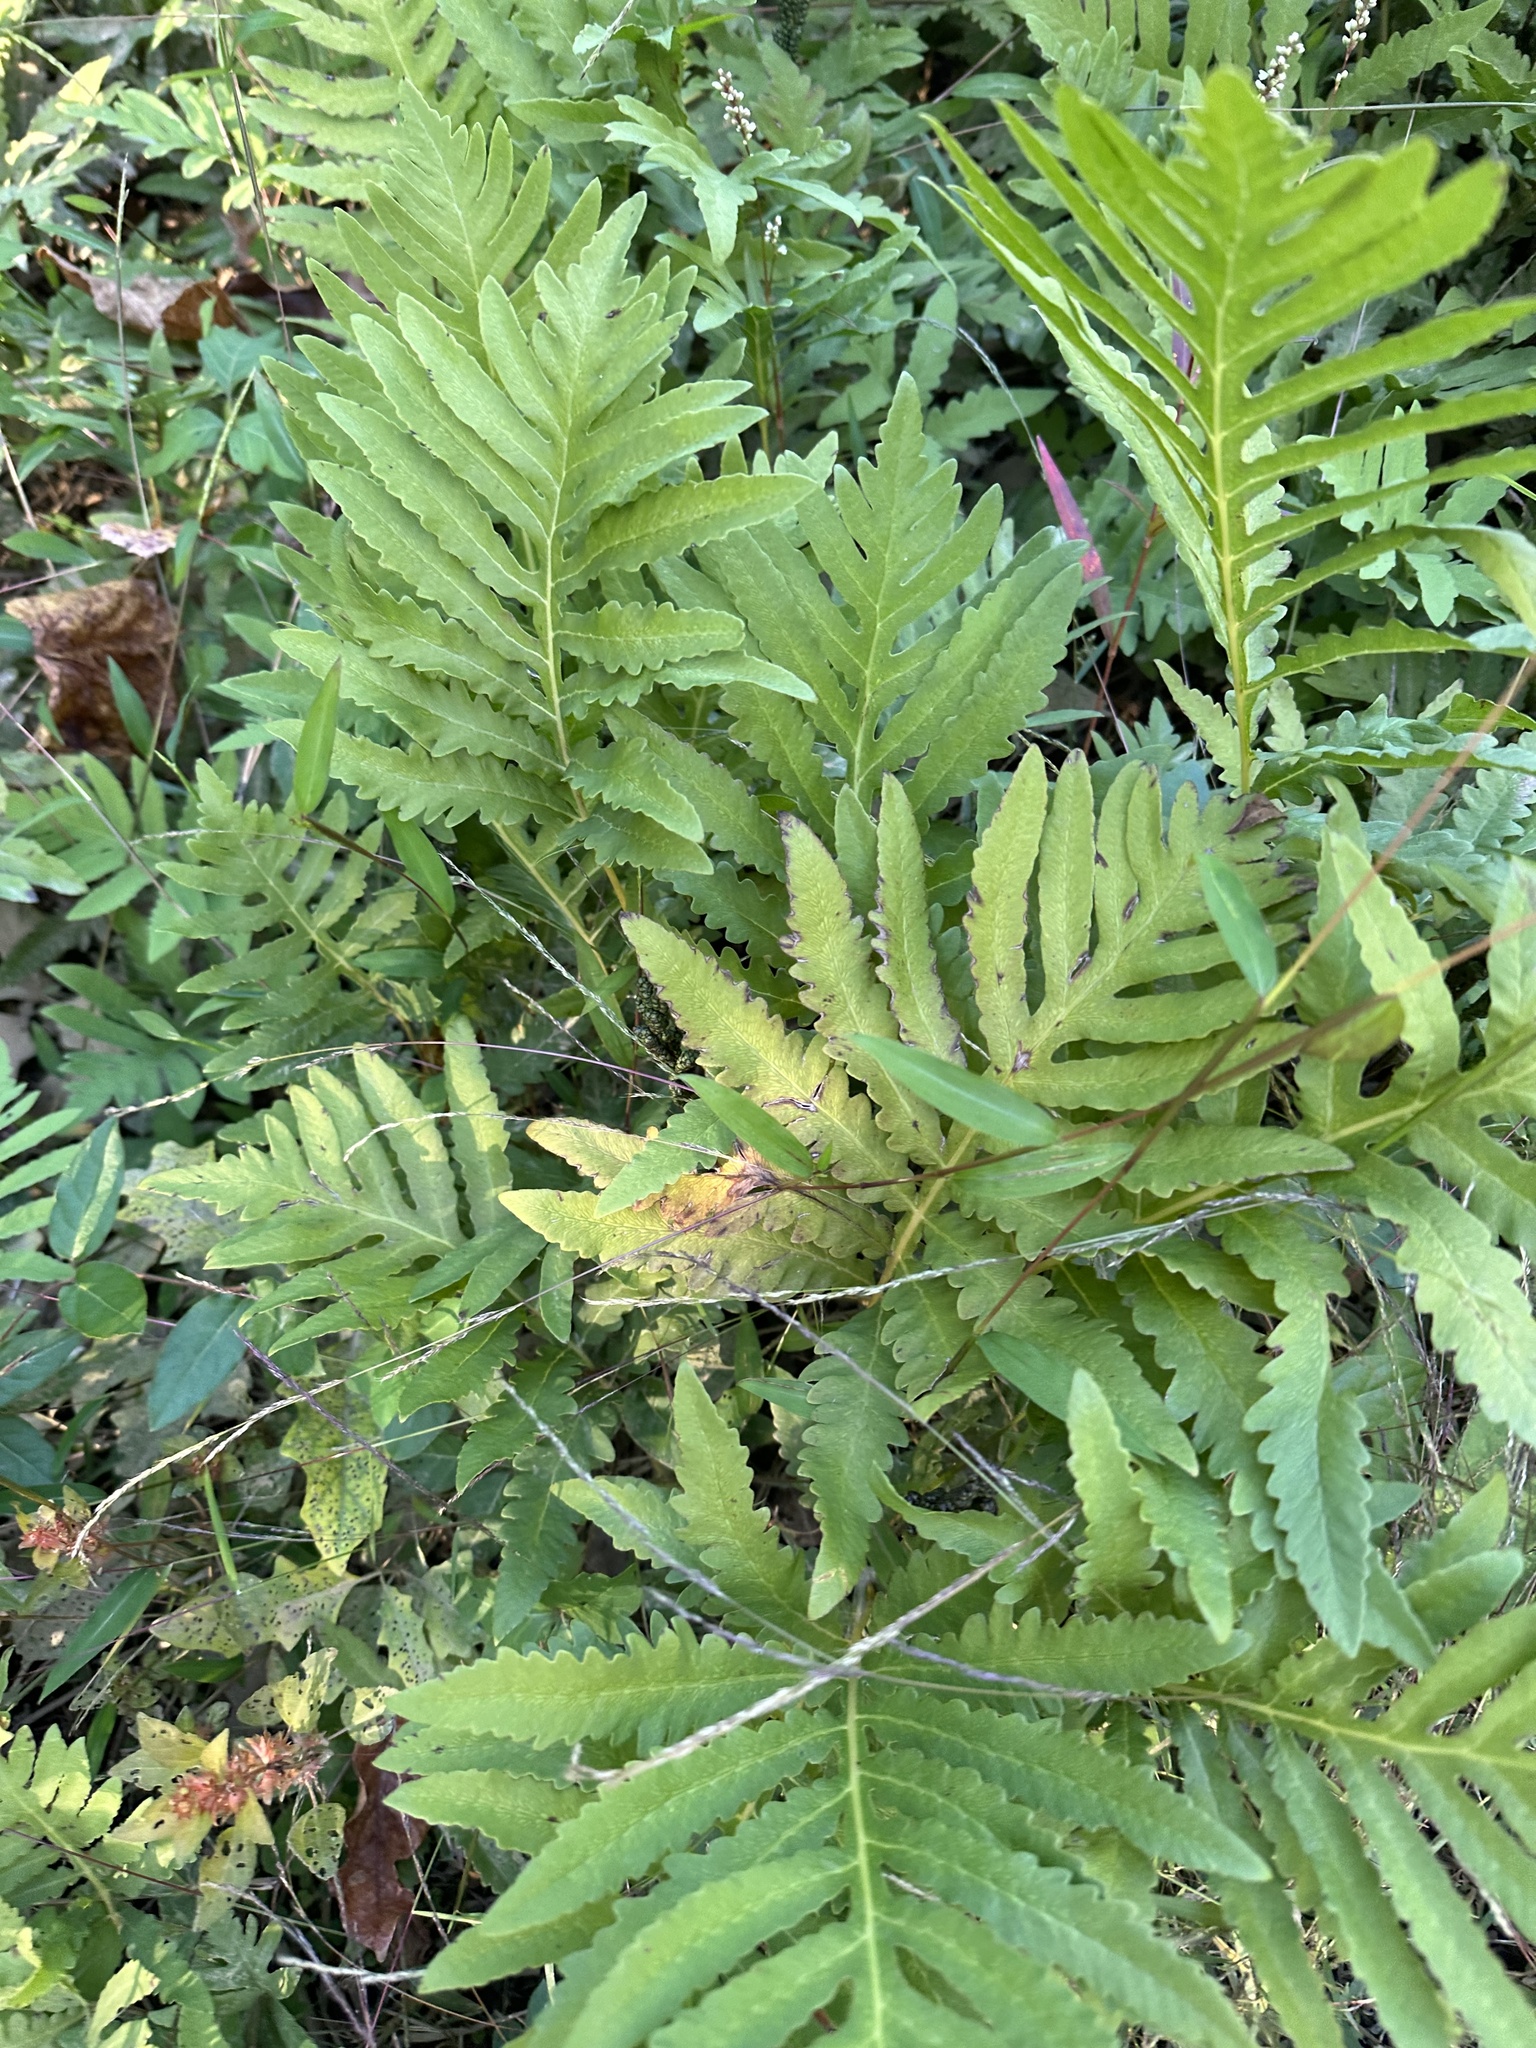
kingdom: Plantae
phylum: Tracheophyta
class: Polypodiopsida
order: Polypodiales
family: Onocleaceae
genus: Onoclea
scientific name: Onoclea sensibilis
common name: Sensitive fern
